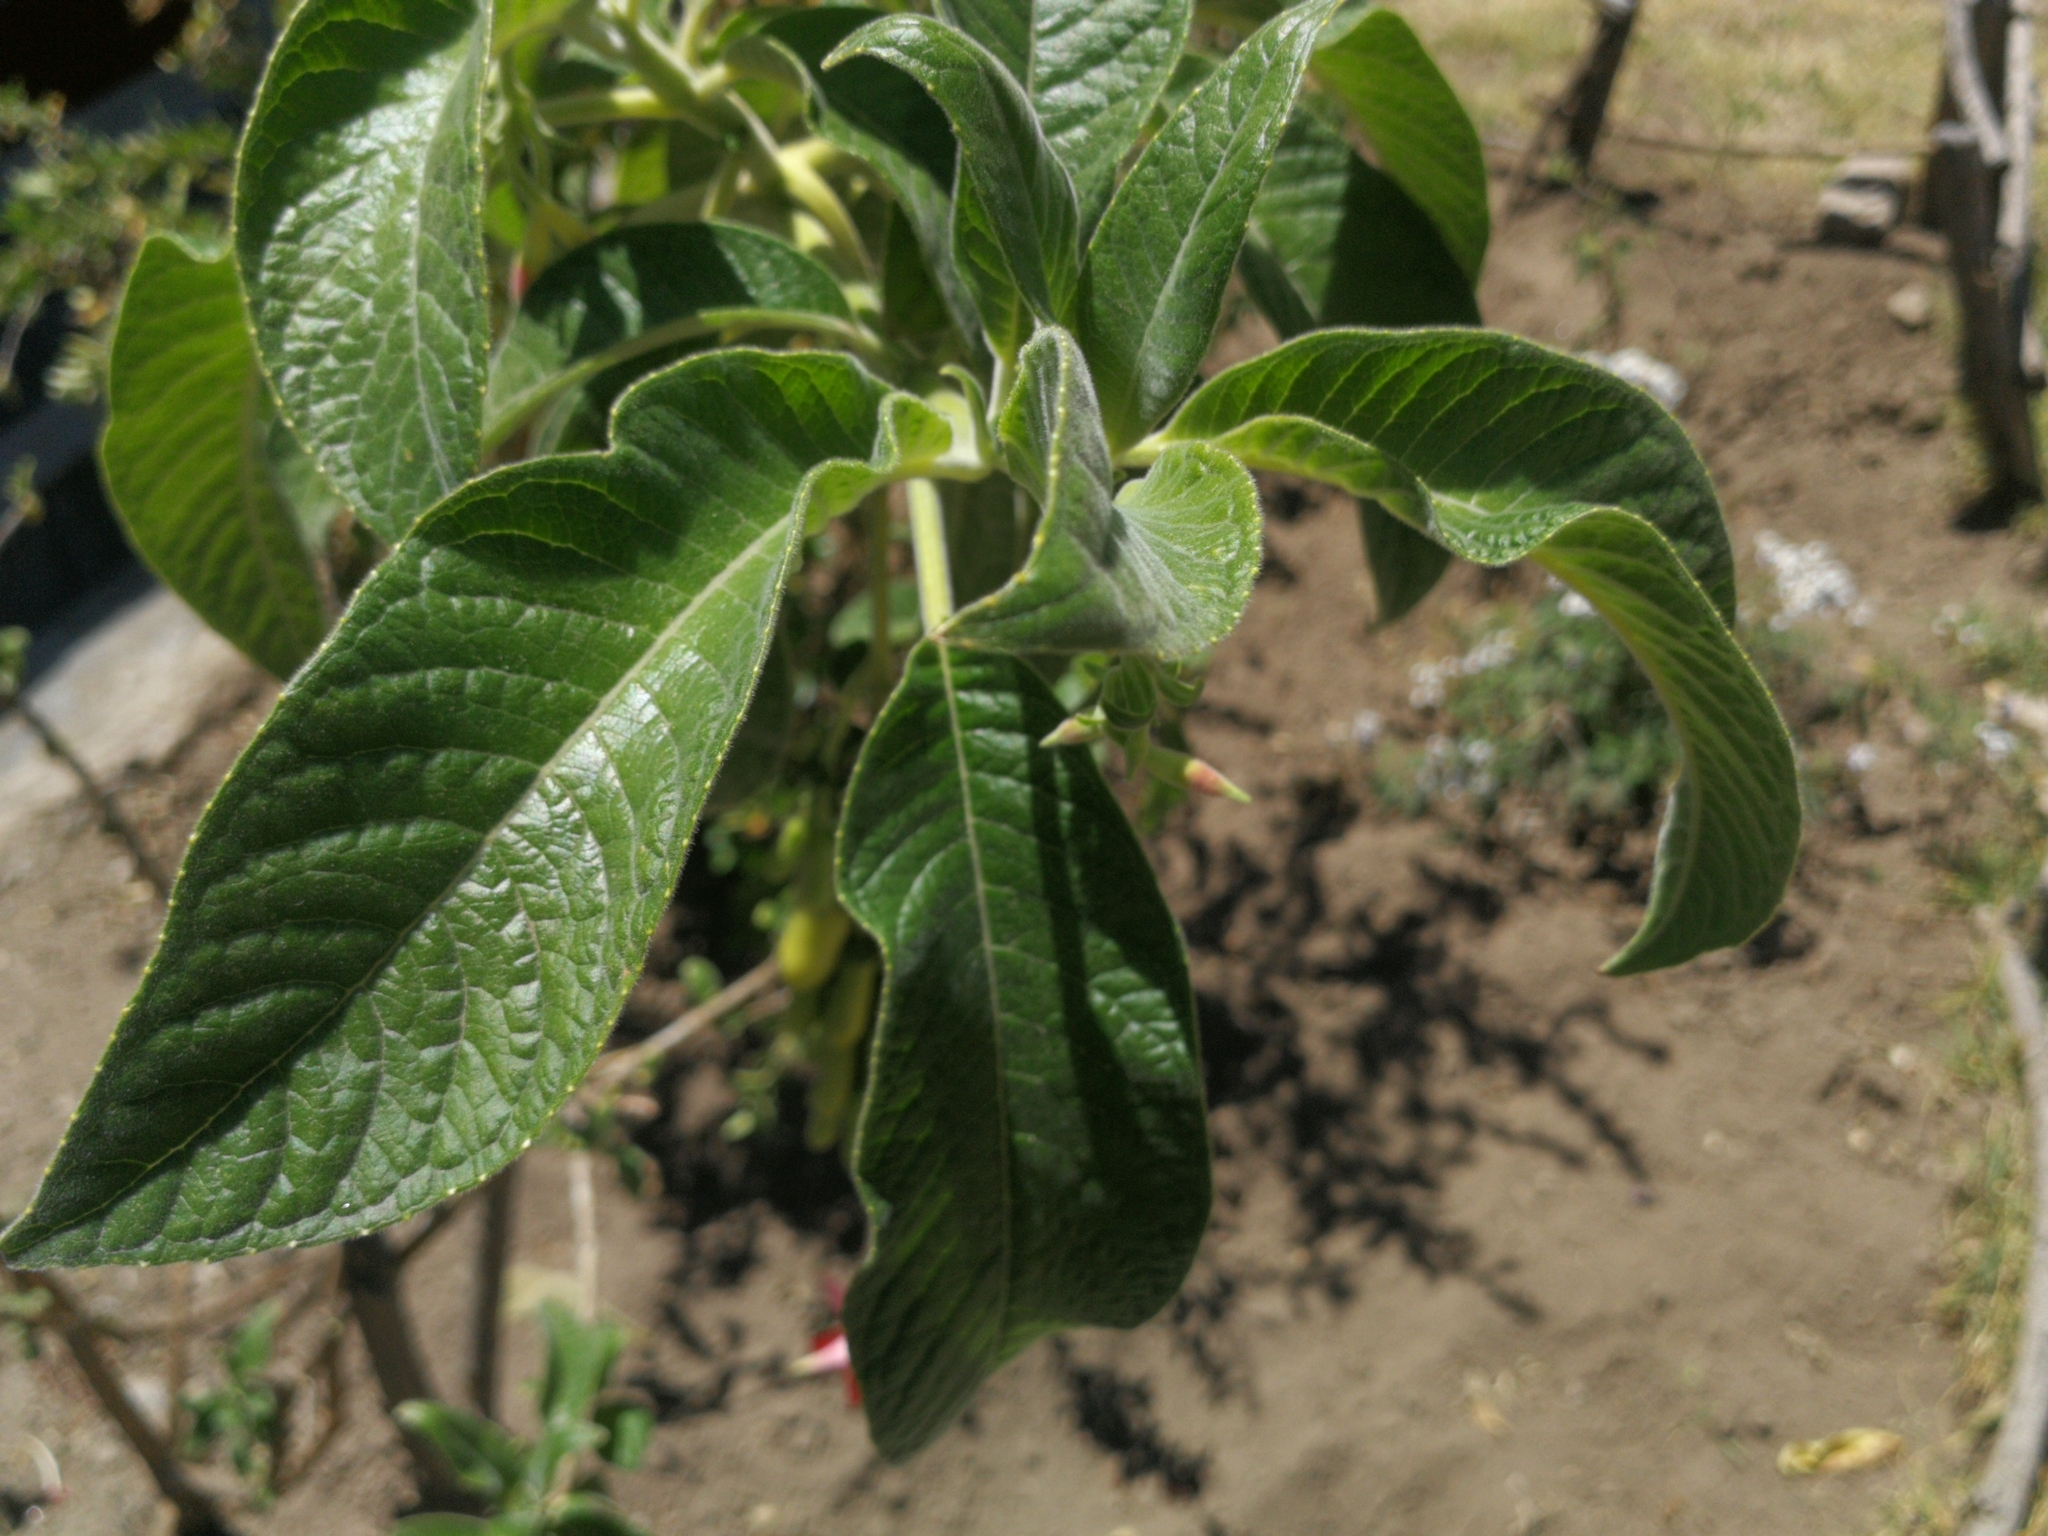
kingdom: Plantae
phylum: Tracheophyta
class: Magnoliopsida
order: Myrtales
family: Onagraceae
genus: Fuchsia
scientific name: Fuchsia boliviana
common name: Bolivian fuchsia
